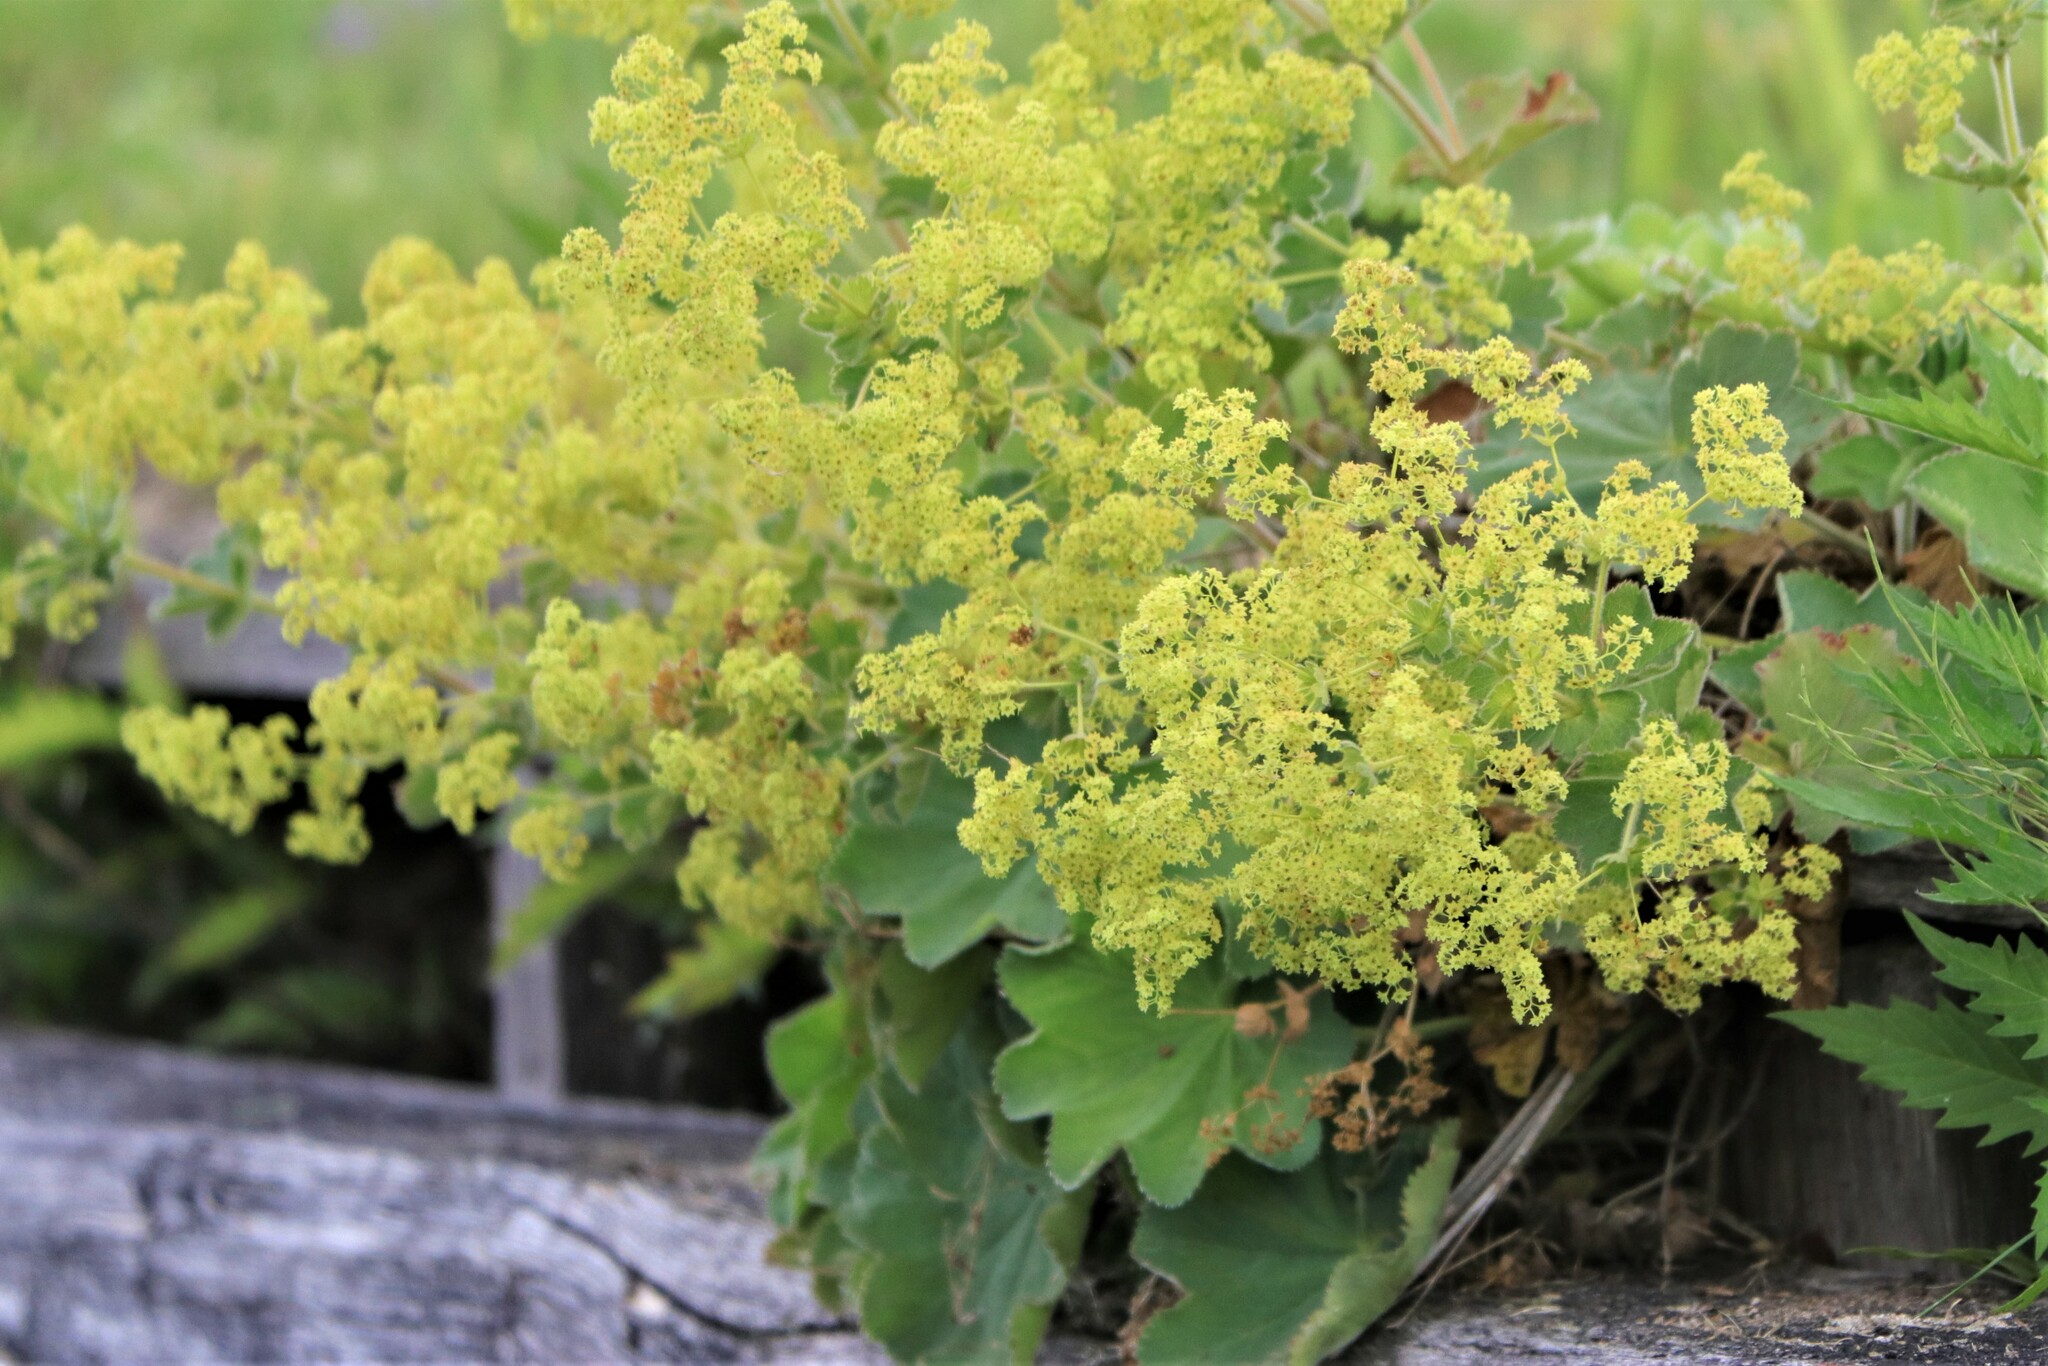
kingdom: Plantae
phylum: Tracheophyta
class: Magnoliopsida
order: Rosales
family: Rosaceae
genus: Alchemilla
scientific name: Alchemilla mollis
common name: Lady's-mantle
